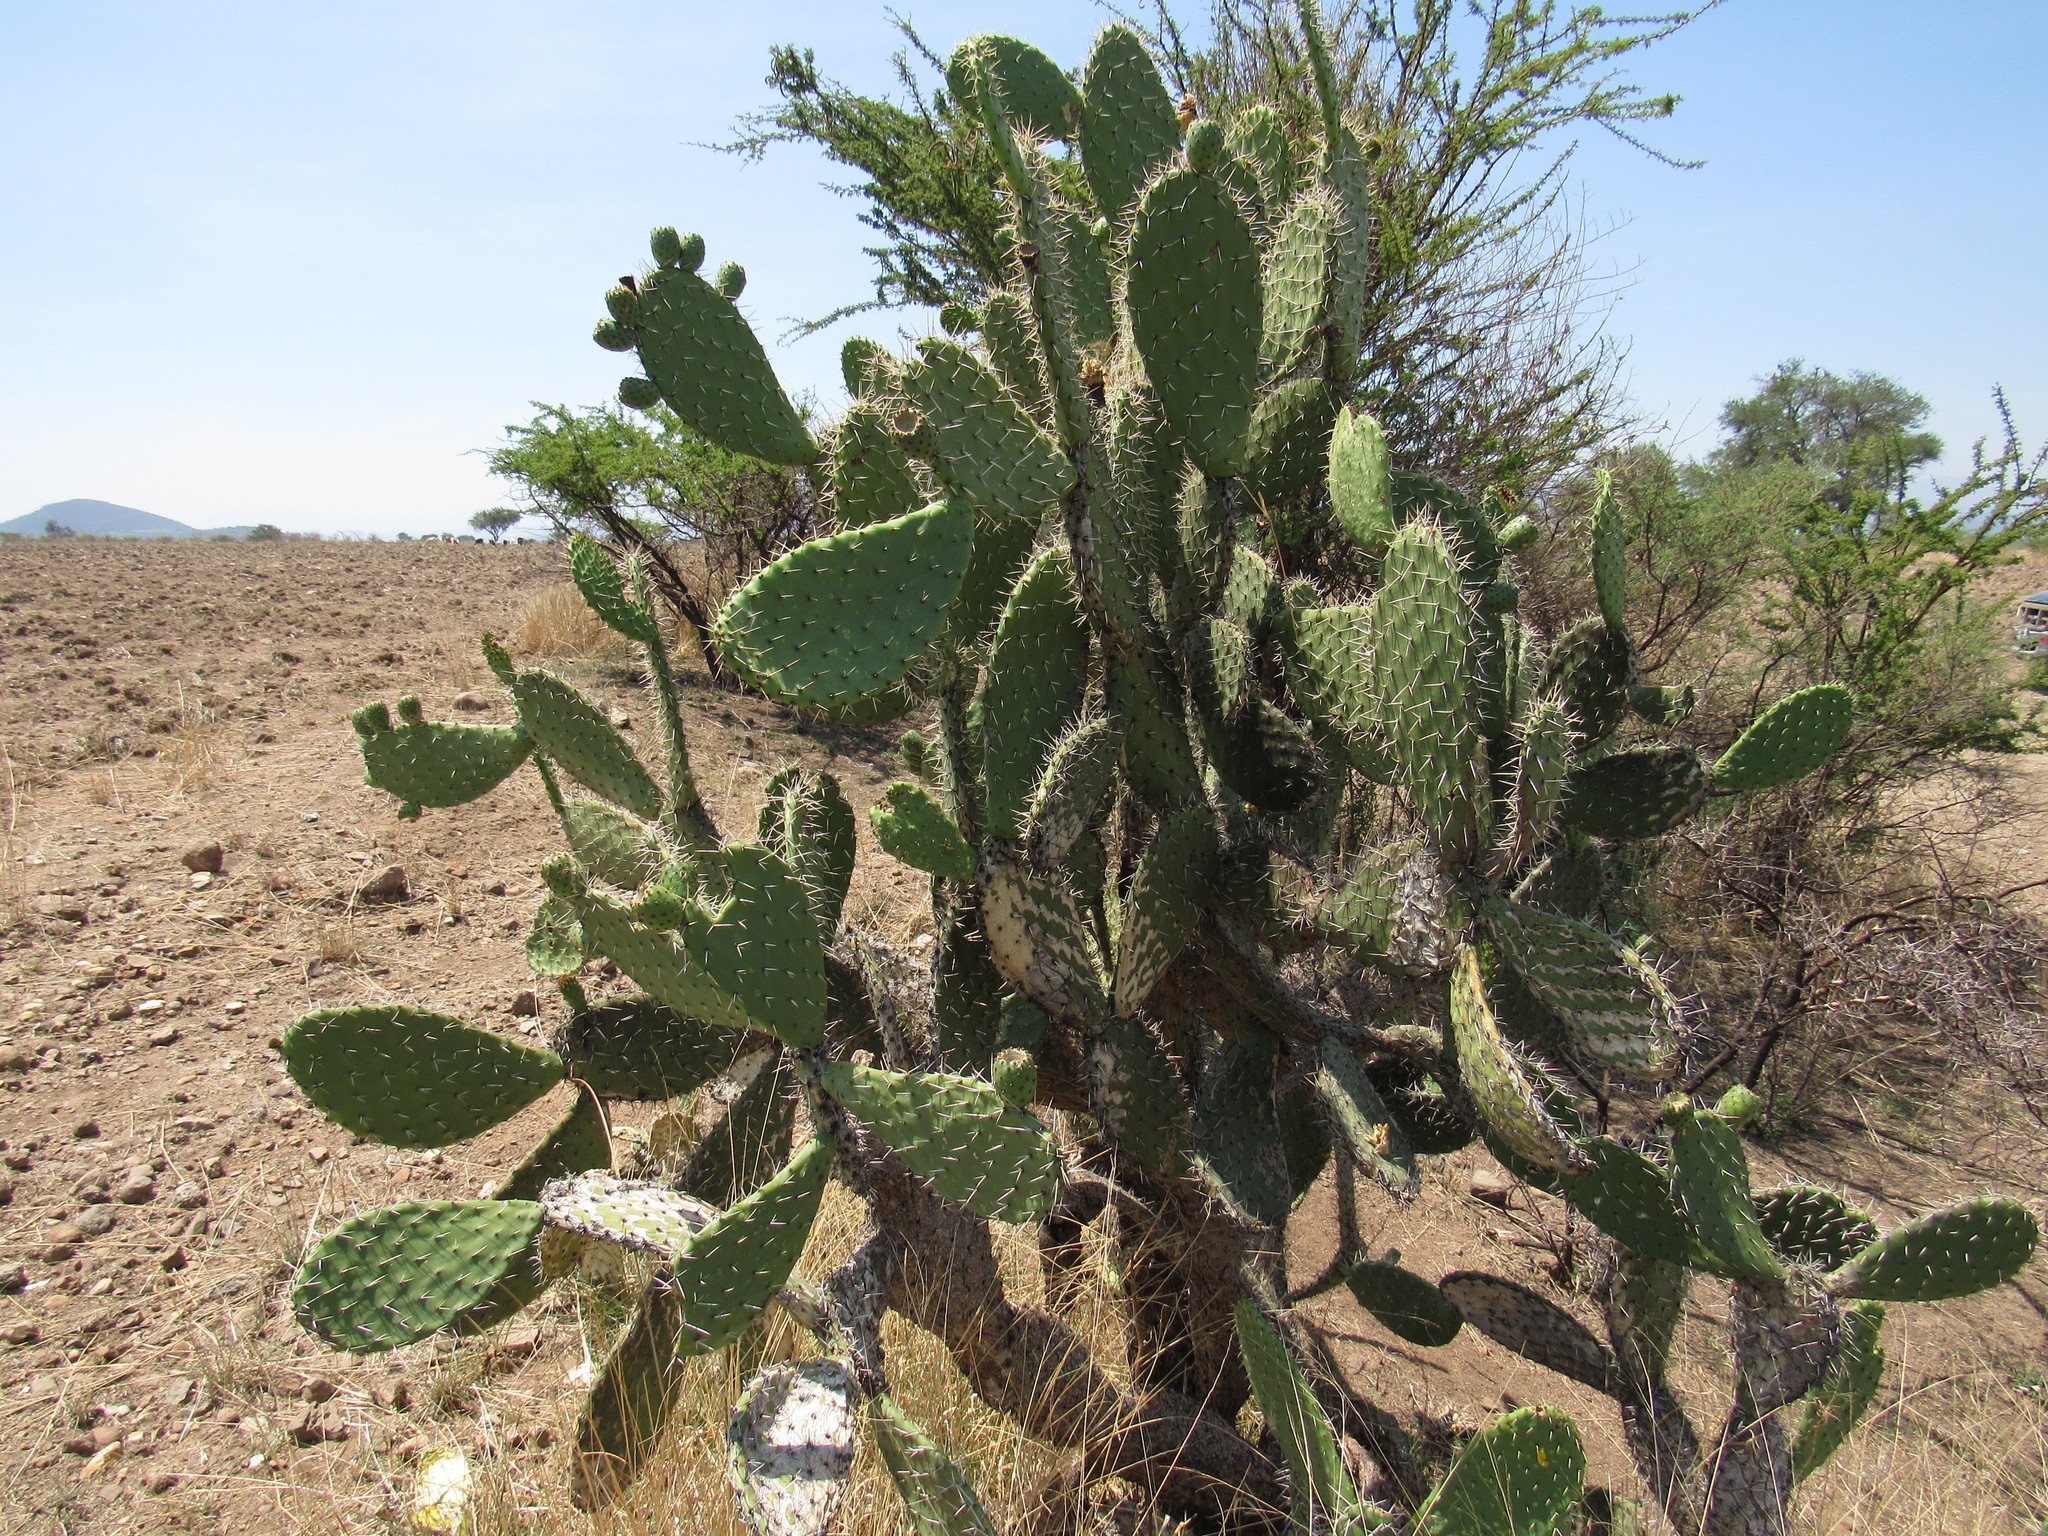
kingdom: Plantae
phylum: Tracheophyta
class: Magnoliopsida
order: Caryophyllales
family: Cactaceae
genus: Opuntia
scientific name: Opuntia lasiacantha
